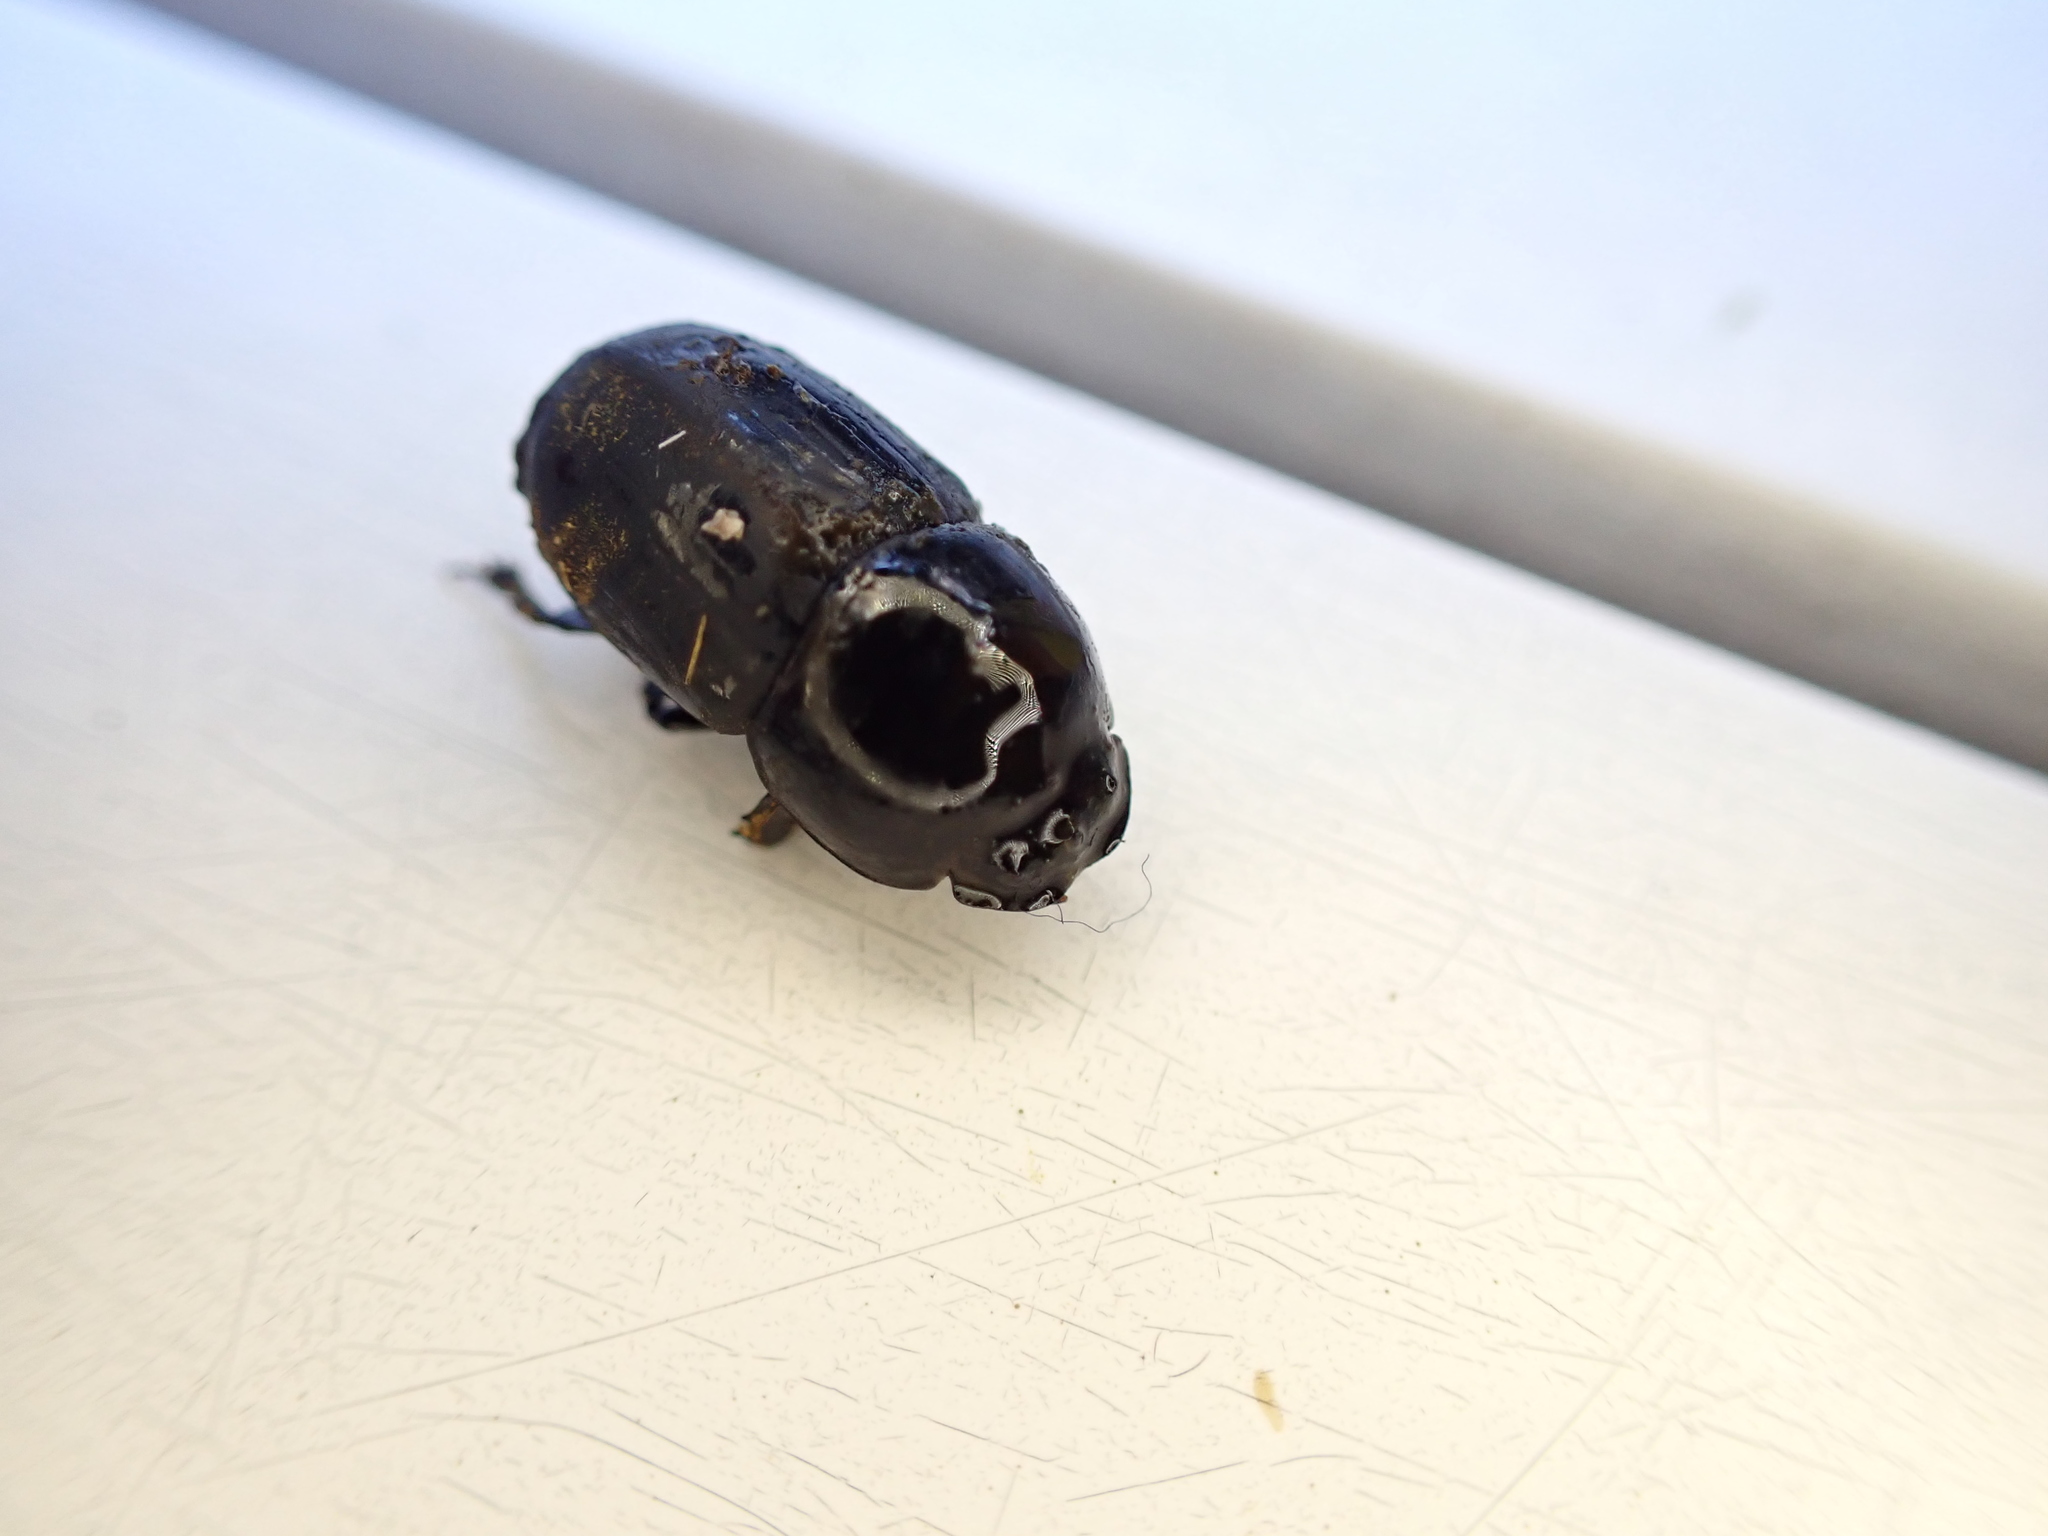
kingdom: Animalia
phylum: Arthropoda
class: Insecta
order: Coleoptera
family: Scarabaeidae
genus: Teuchestes
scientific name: Teuchestes fossor
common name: Digger small dung beetle
